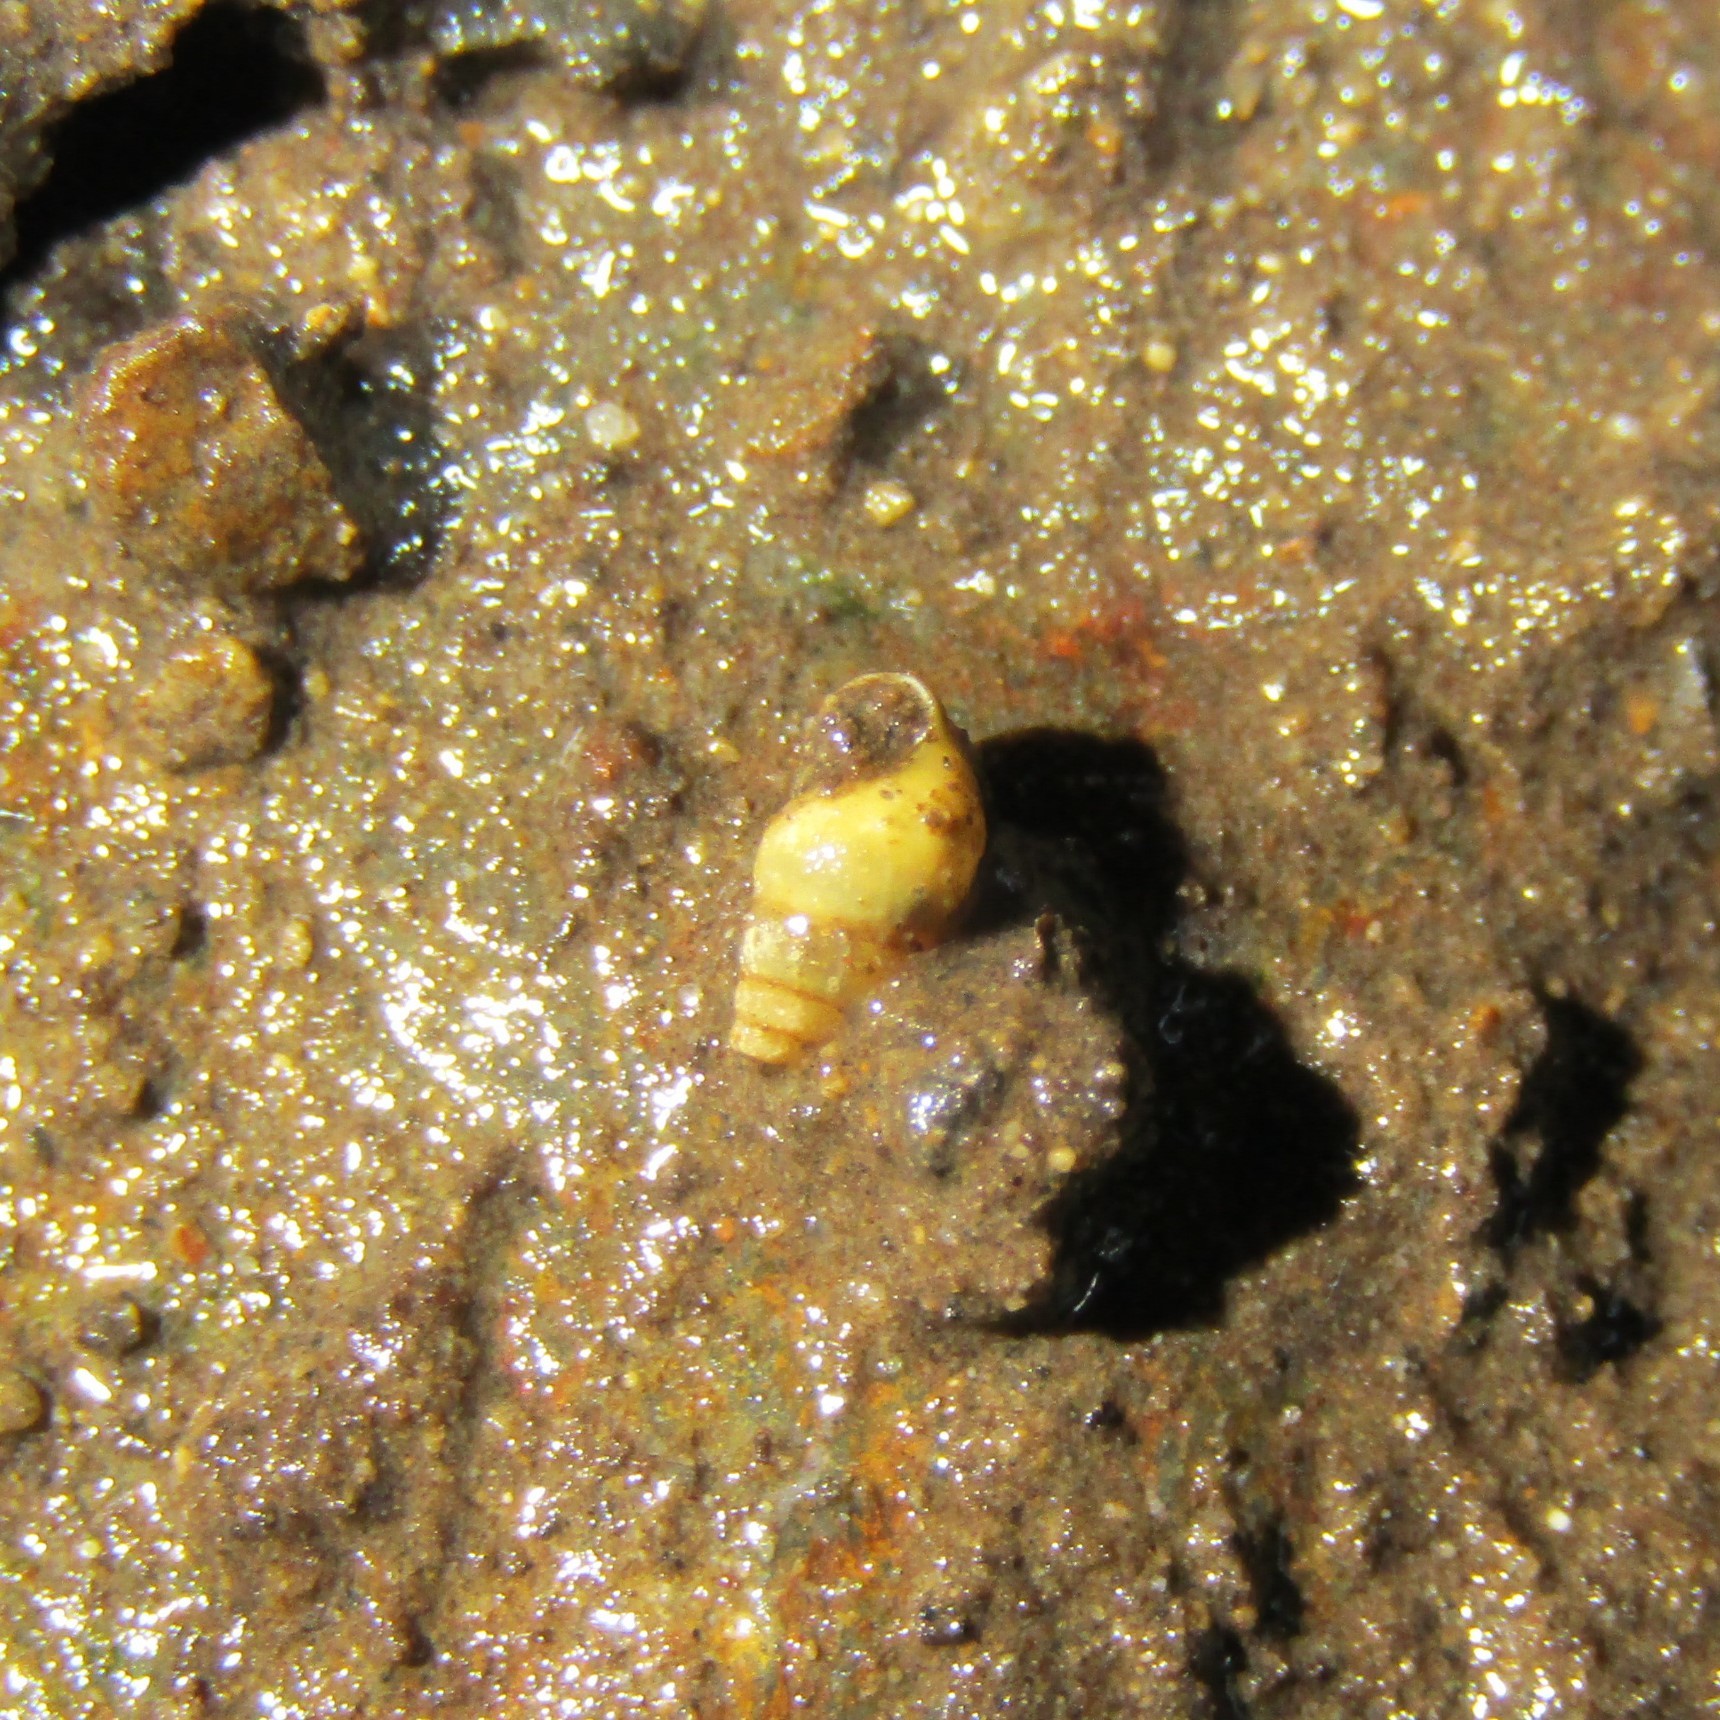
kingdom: Animalia
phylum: Mollusca
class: Gastropoda
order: Littorinimorpha
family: Tateidae
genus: Potamopyrgus
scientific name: Potamopyrgus antipodarum
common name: Jenkins' spire snail
